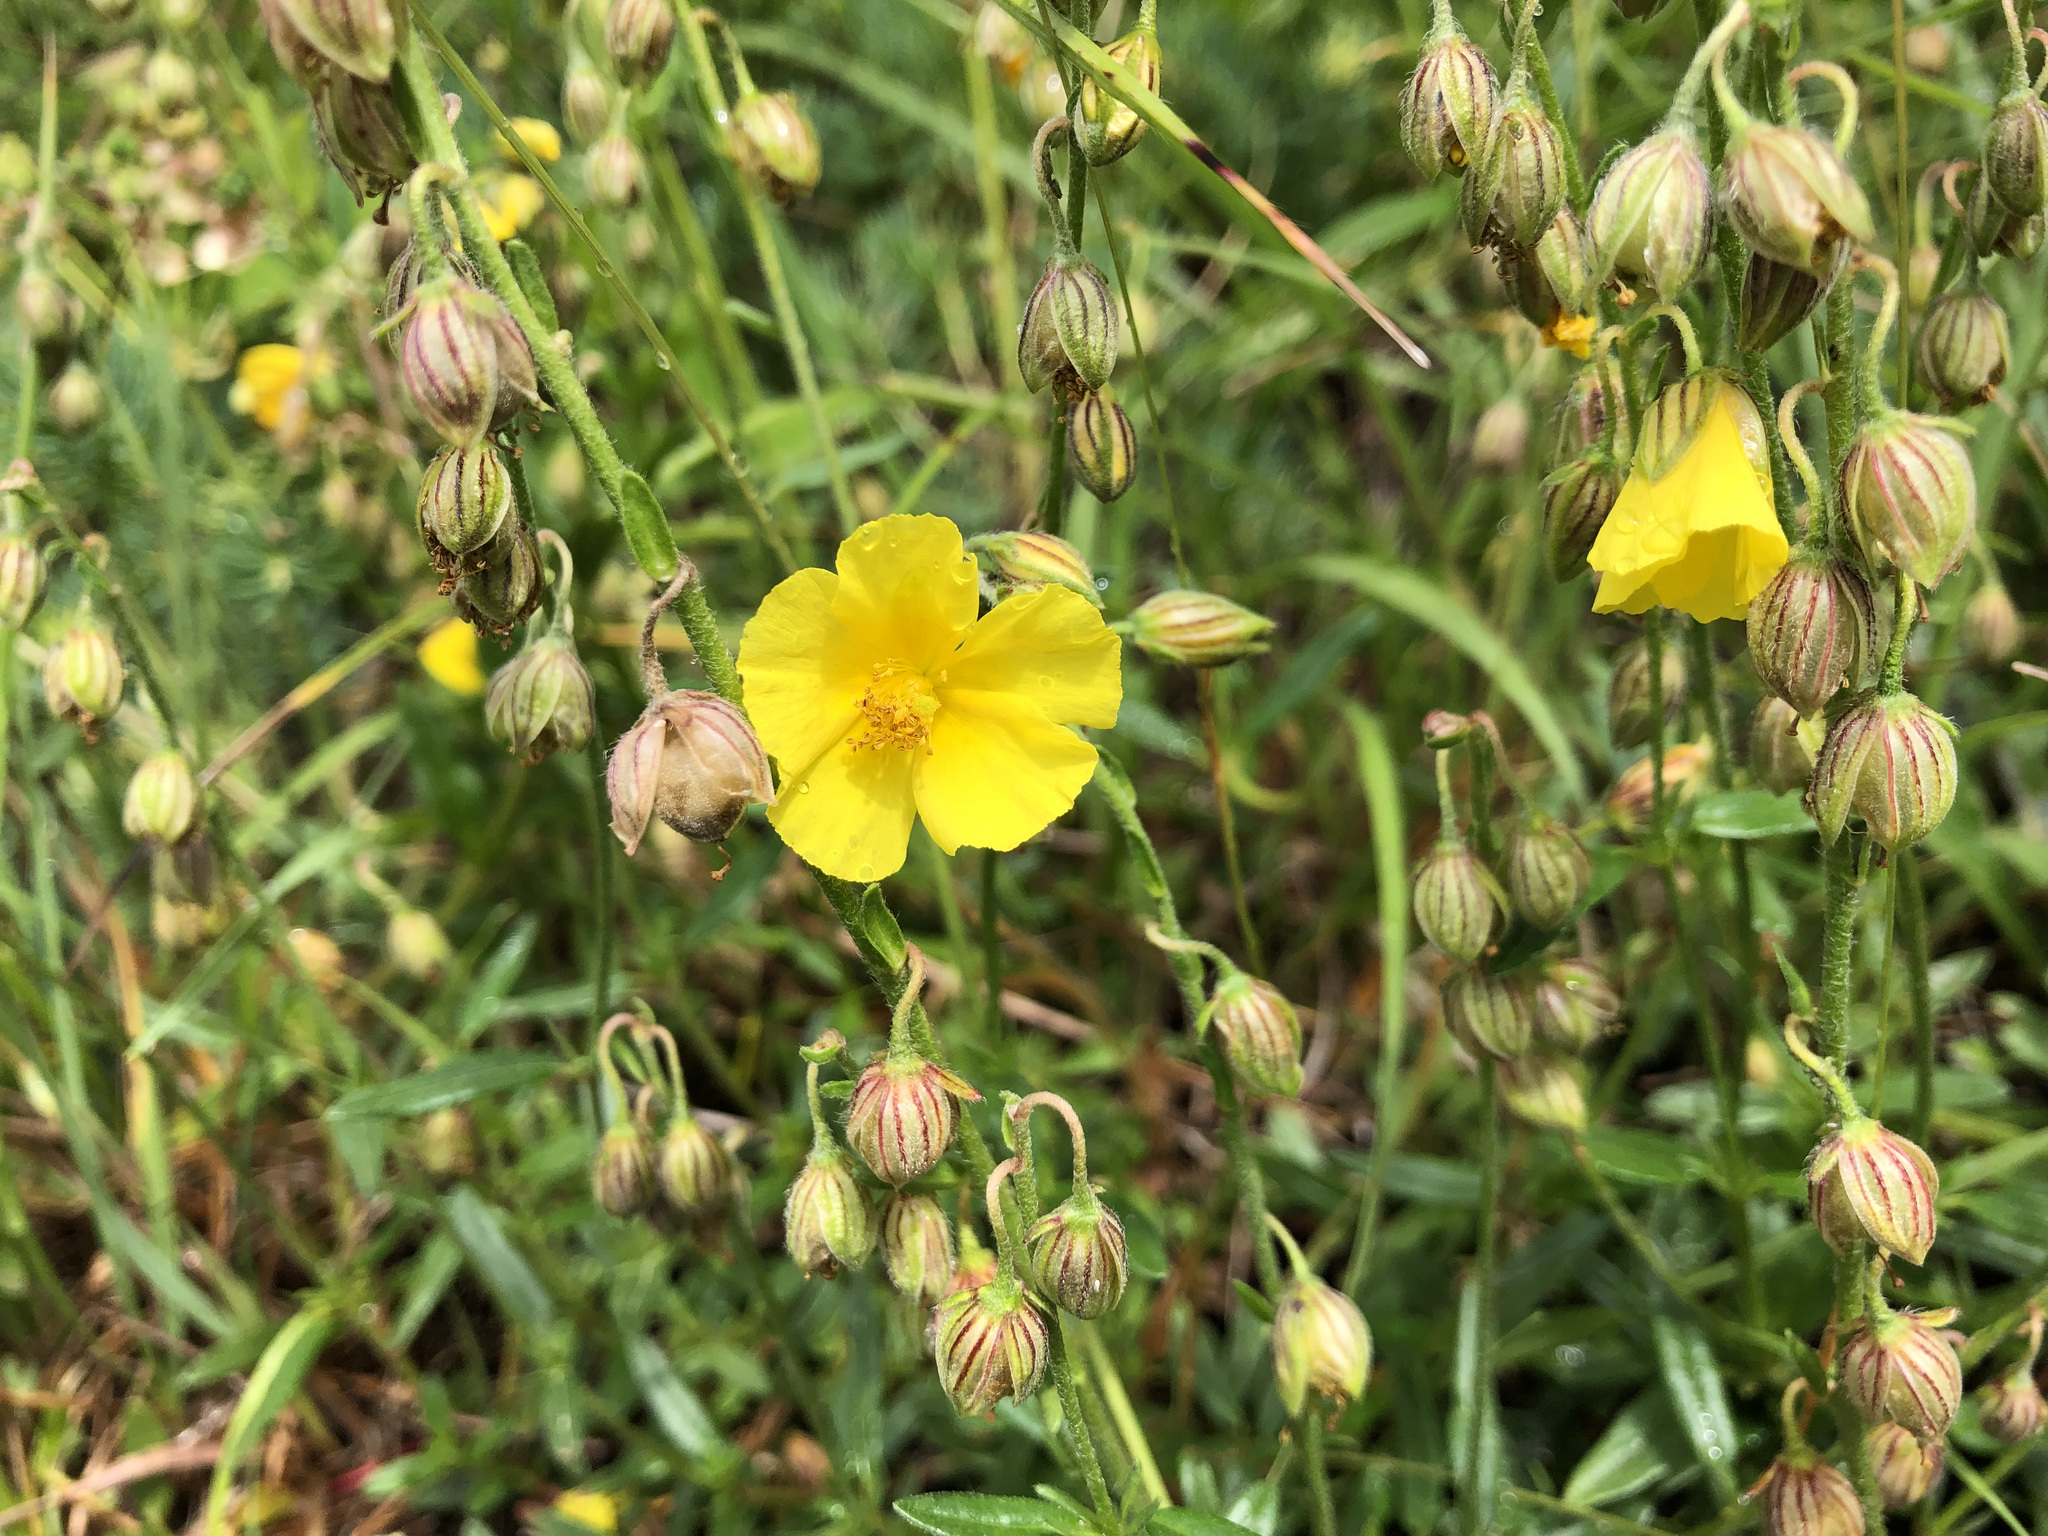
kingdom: Plantae
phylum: Tracheophyta
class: Magnoliopsida
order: Malvales
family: Cistaceae
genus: Helianthemum
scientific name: Helianthemum nummularium
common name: Common rock-rose
